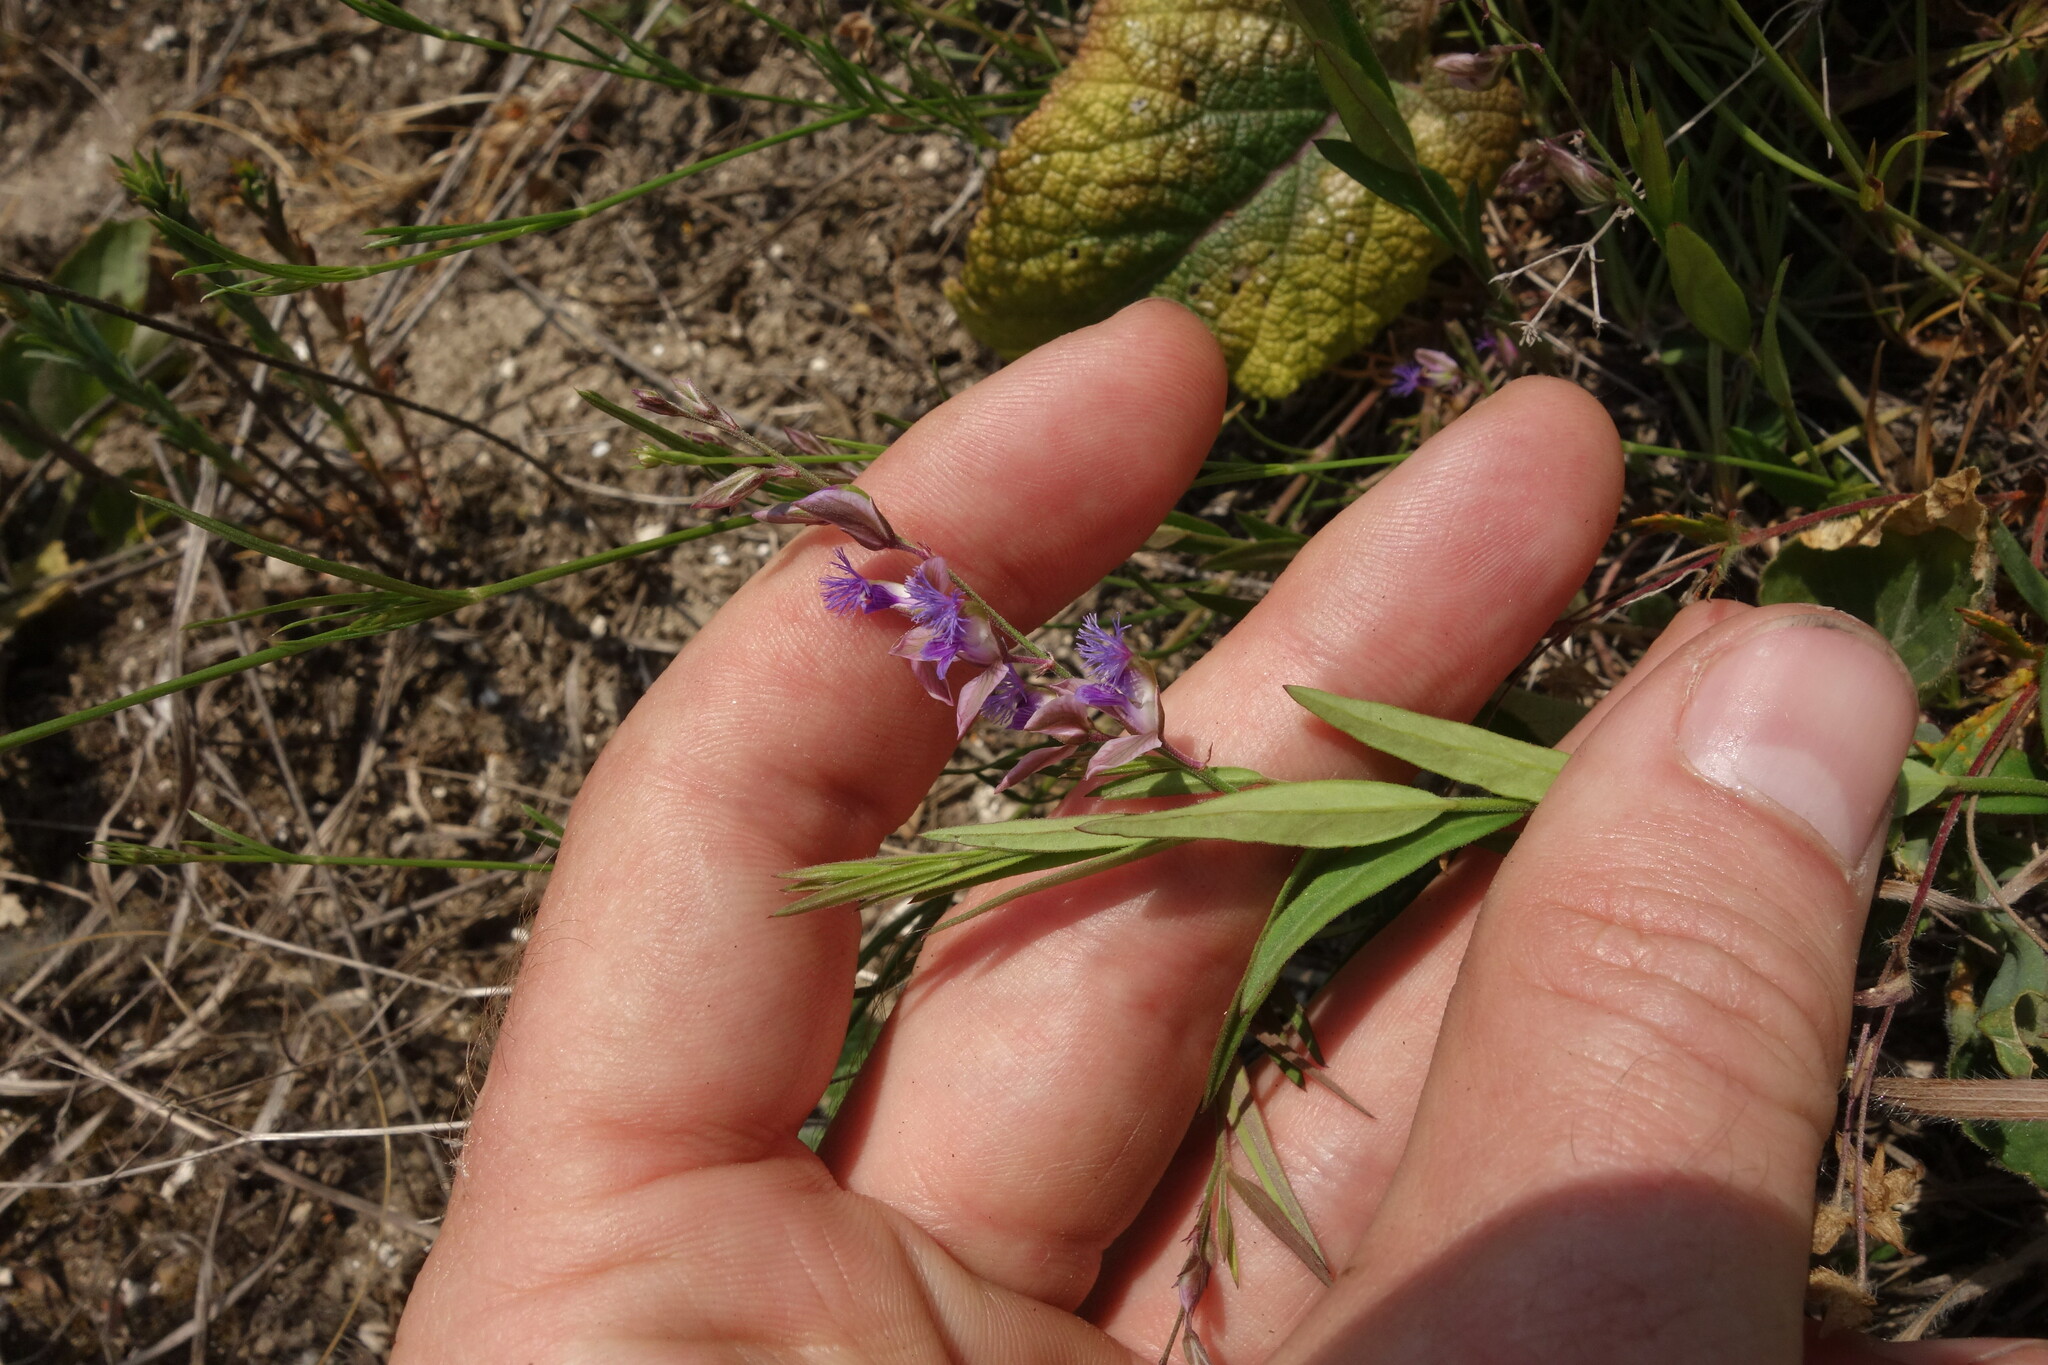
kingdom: Plantae
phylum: Tracheophyta
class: Magnoliopsida
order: Fabales
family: Polygalaceae
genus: Polygala
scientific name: Polygala sibirica
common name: Siberian polygala
